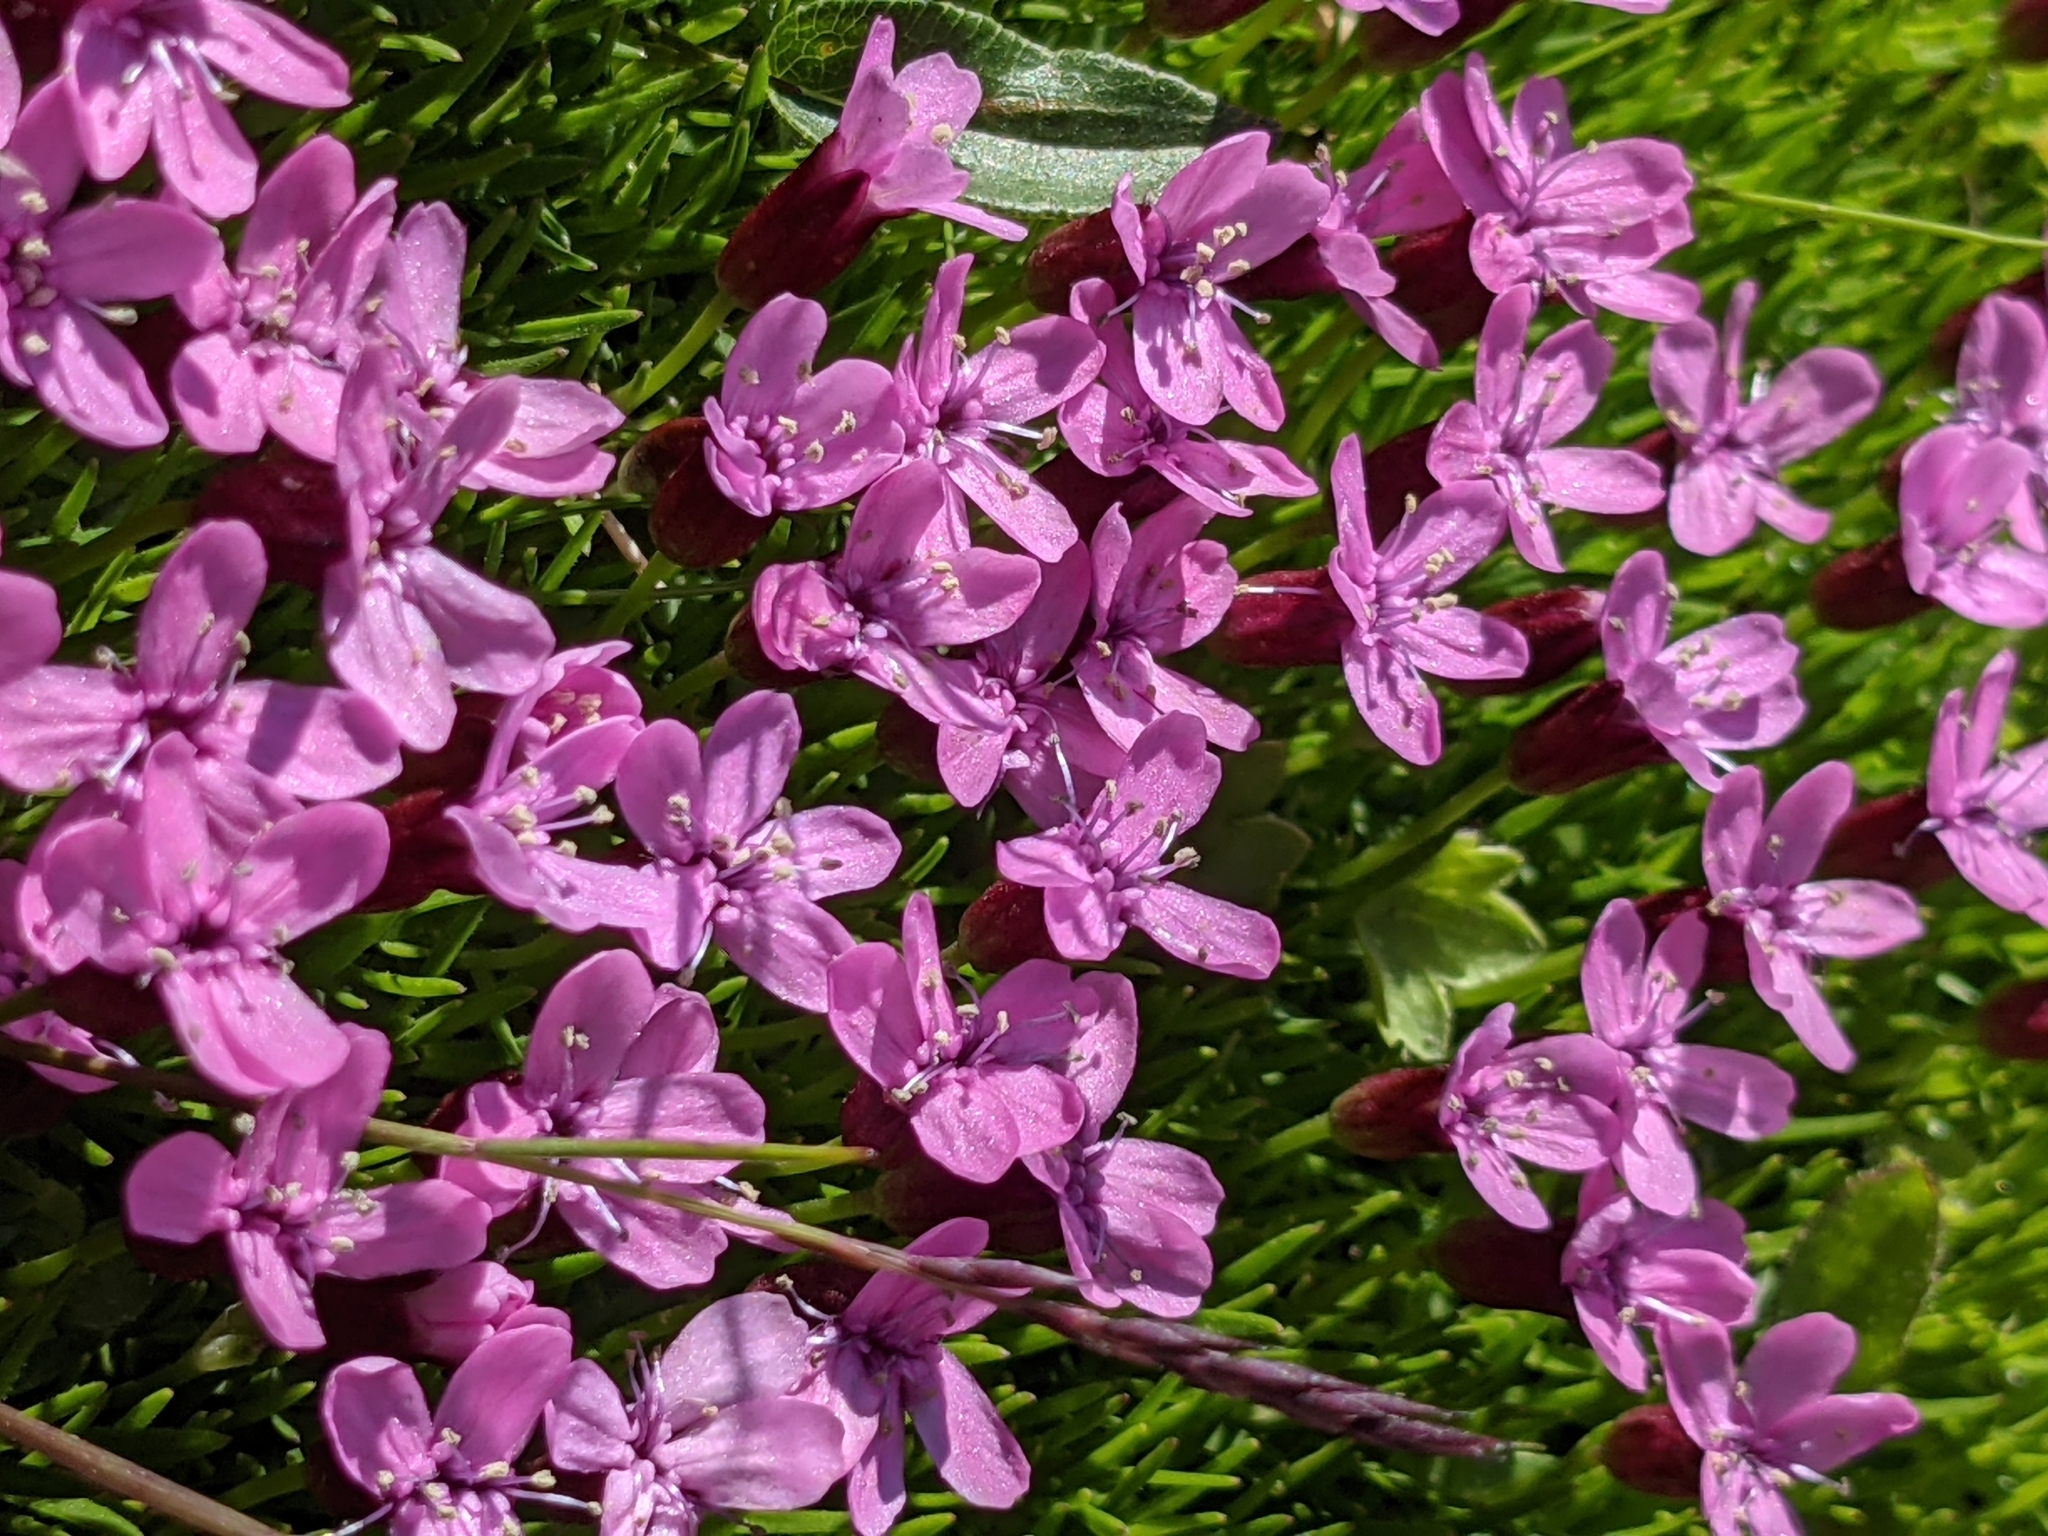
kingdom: Plantae
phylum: Tracheophyta
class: Magnoliopsida
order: Caryophyllales
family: Caryophyllaceae
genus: Silene
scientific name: Silene acaulis
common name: Moss campion
